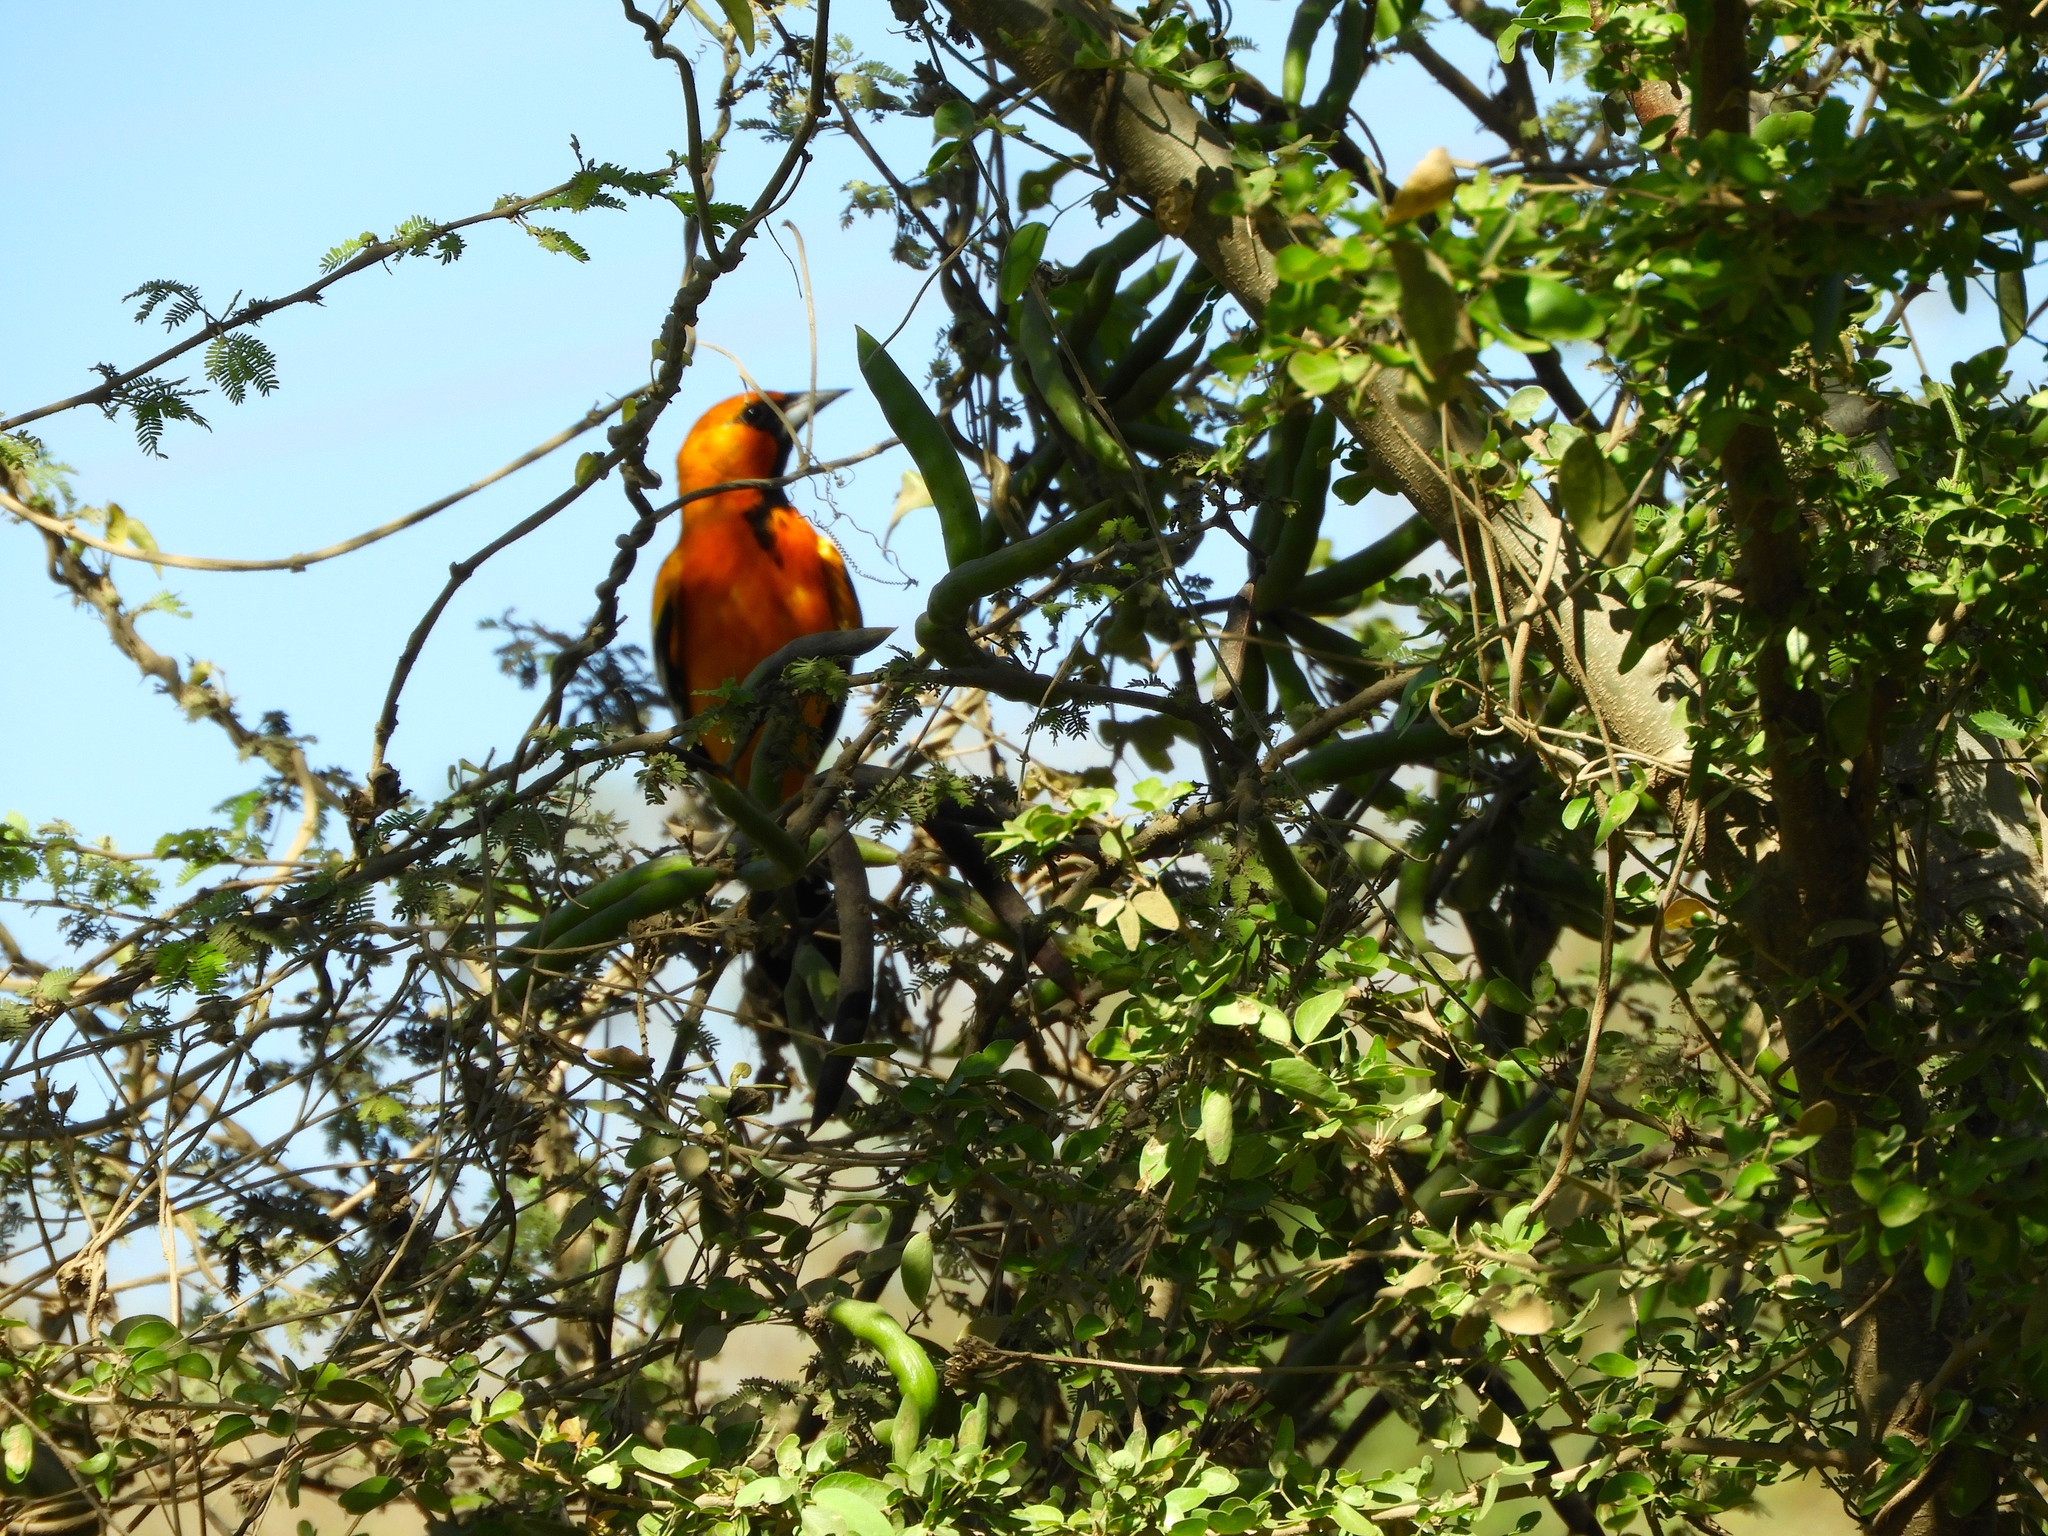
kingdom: Animalia
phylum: Chordata
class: Aves
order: Passeriformes
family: Icteridae
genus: Icterus
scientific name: Icterus pustulatus
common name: Streak-backed oriole
